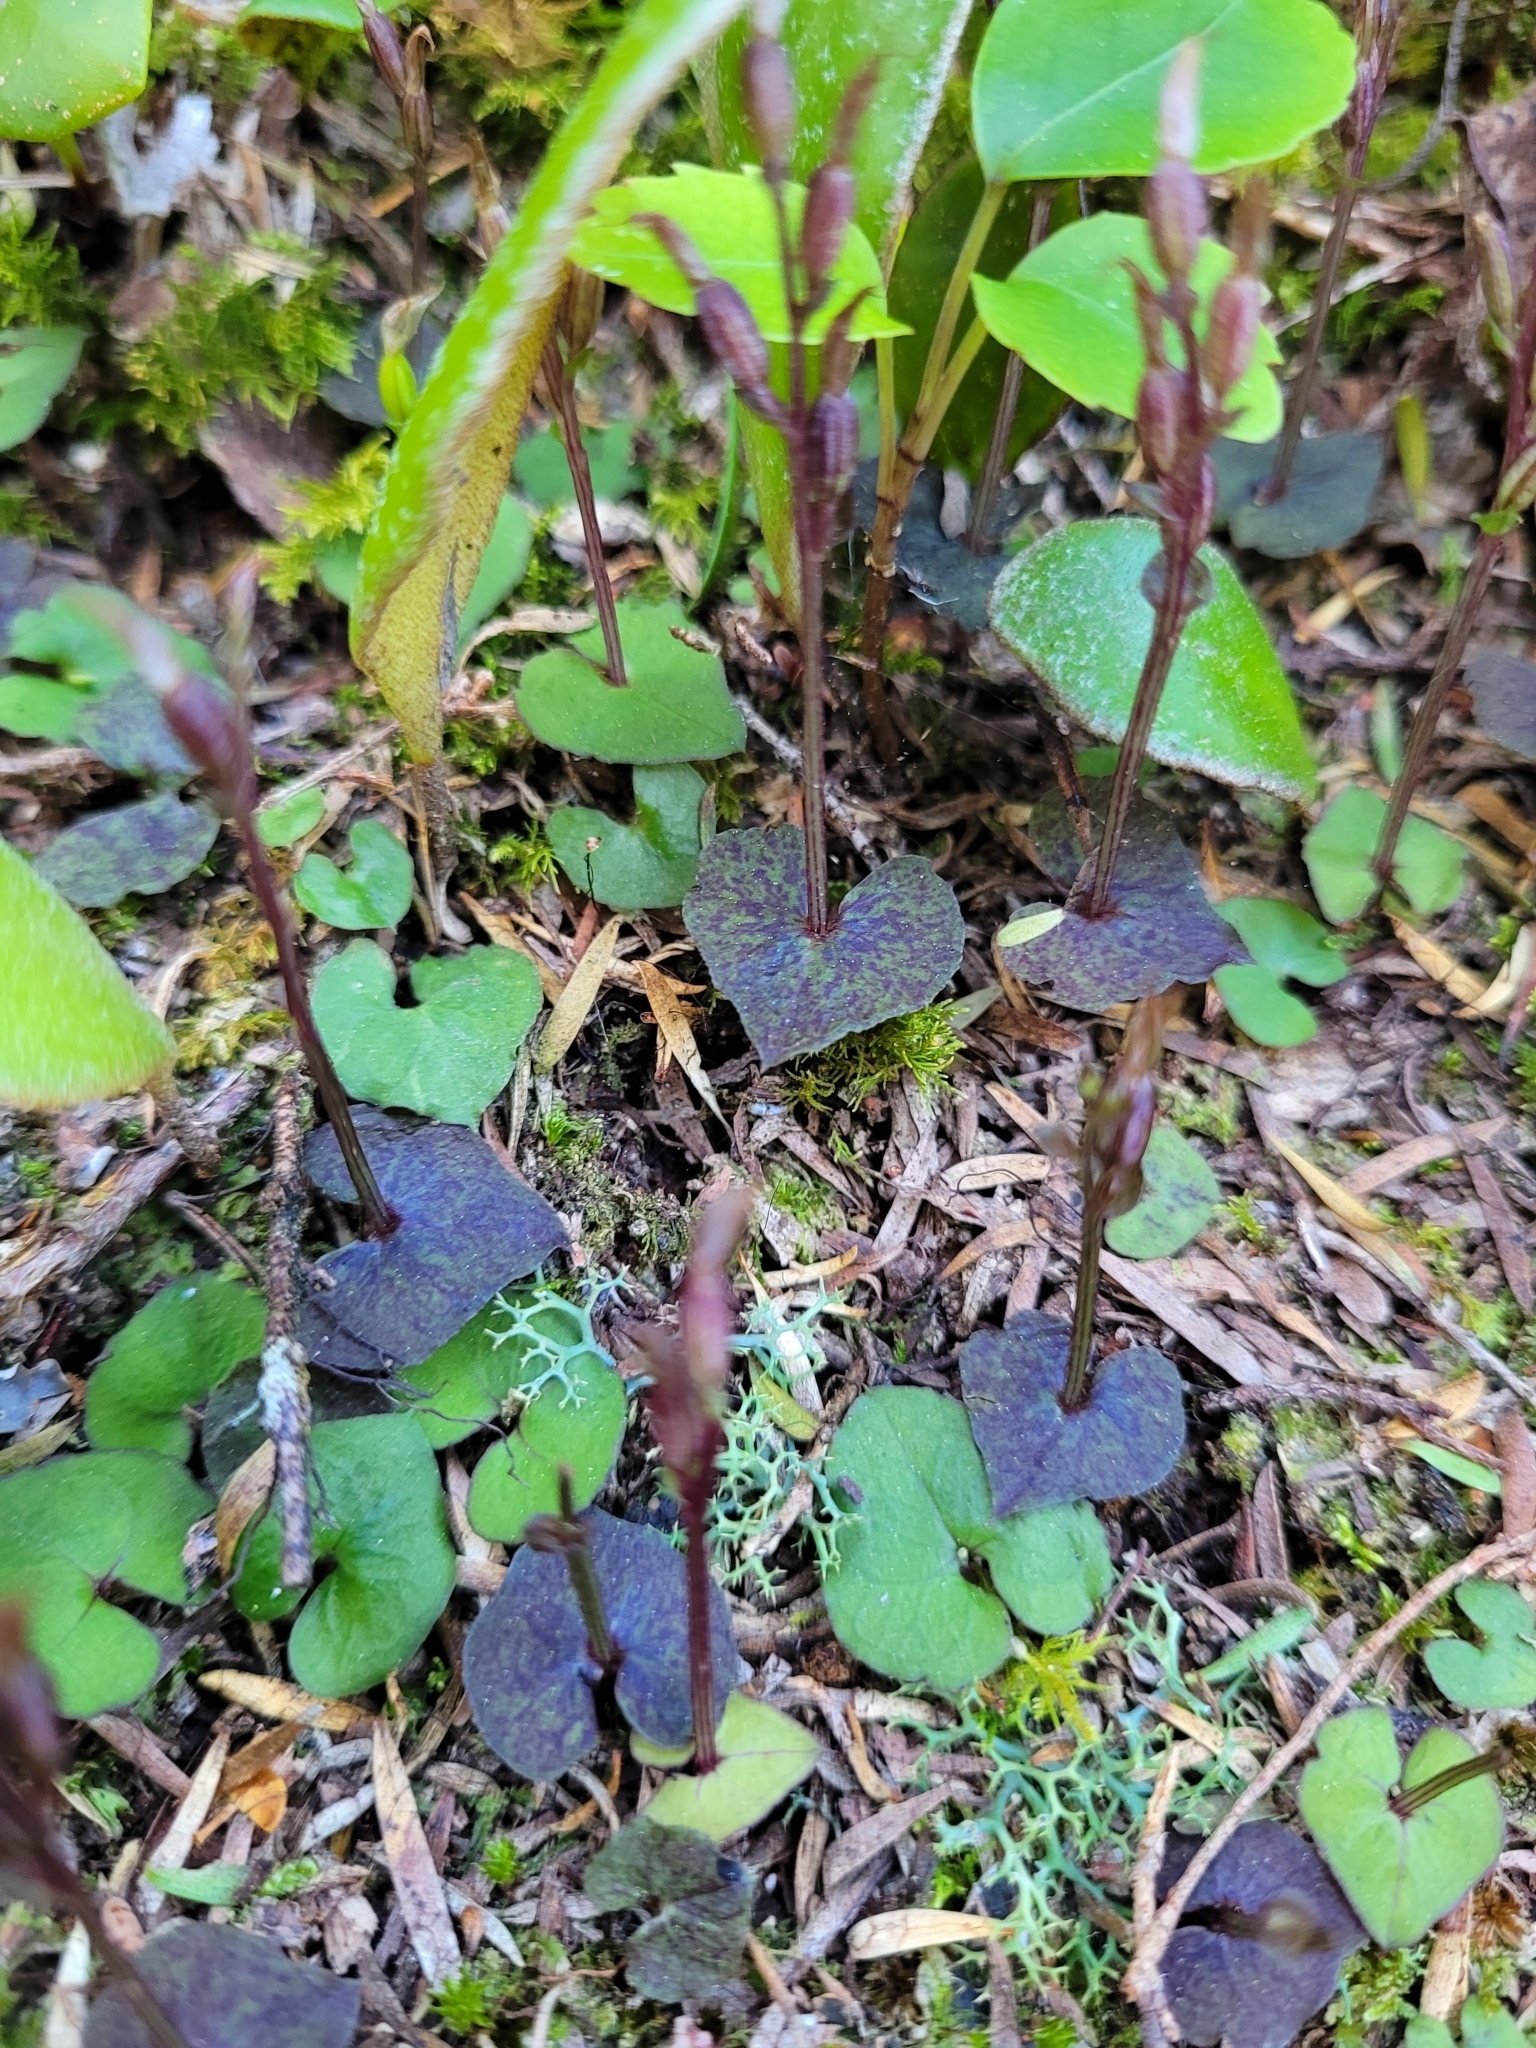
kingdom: Plantae
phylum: Tracheophyta
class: Liliopsida
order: Asparagales
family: Orchidaceae
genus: Acianthus
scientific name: Acianthus sinclairii
